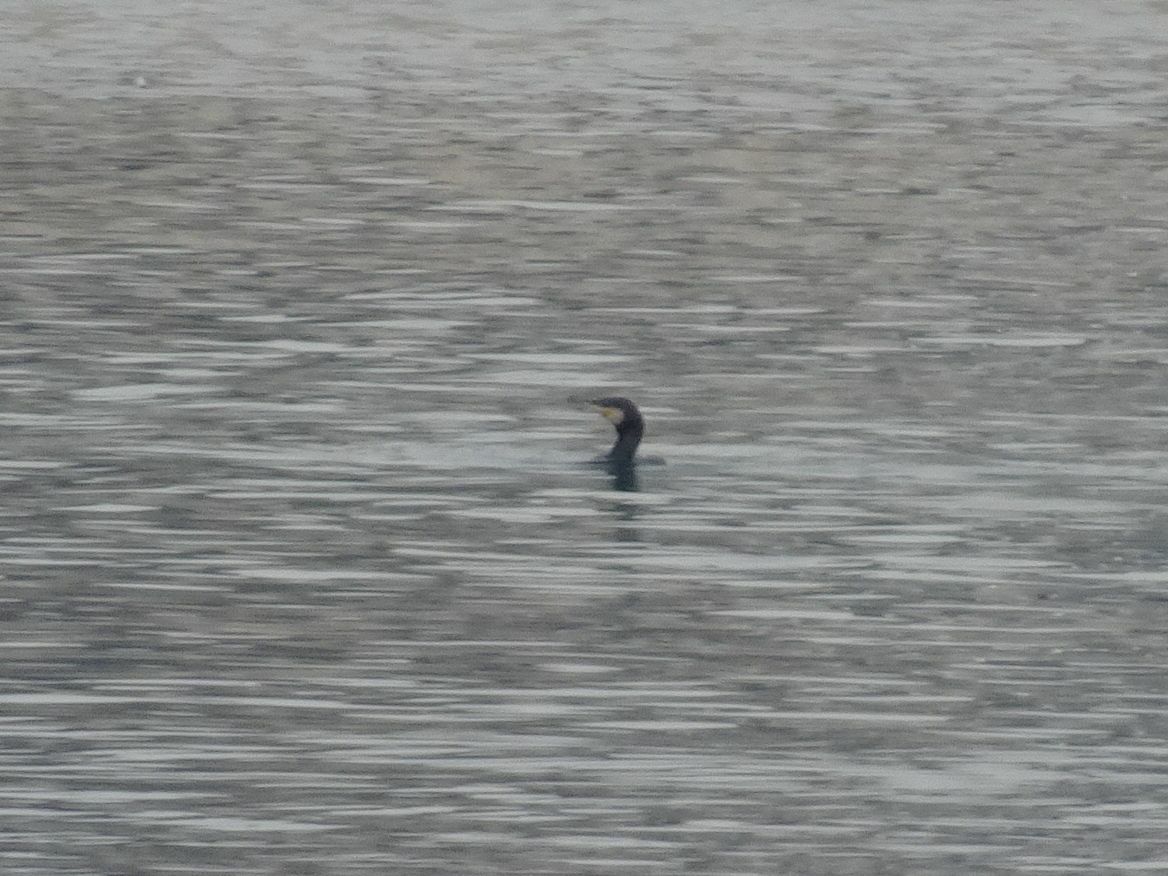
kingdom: Animalia
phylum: Chordata
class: Aves
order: Suliformes
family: Phalacrocoracidae
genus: Phalacrocorax
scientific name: Phalacrocorax carbo
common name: Great cormorant
